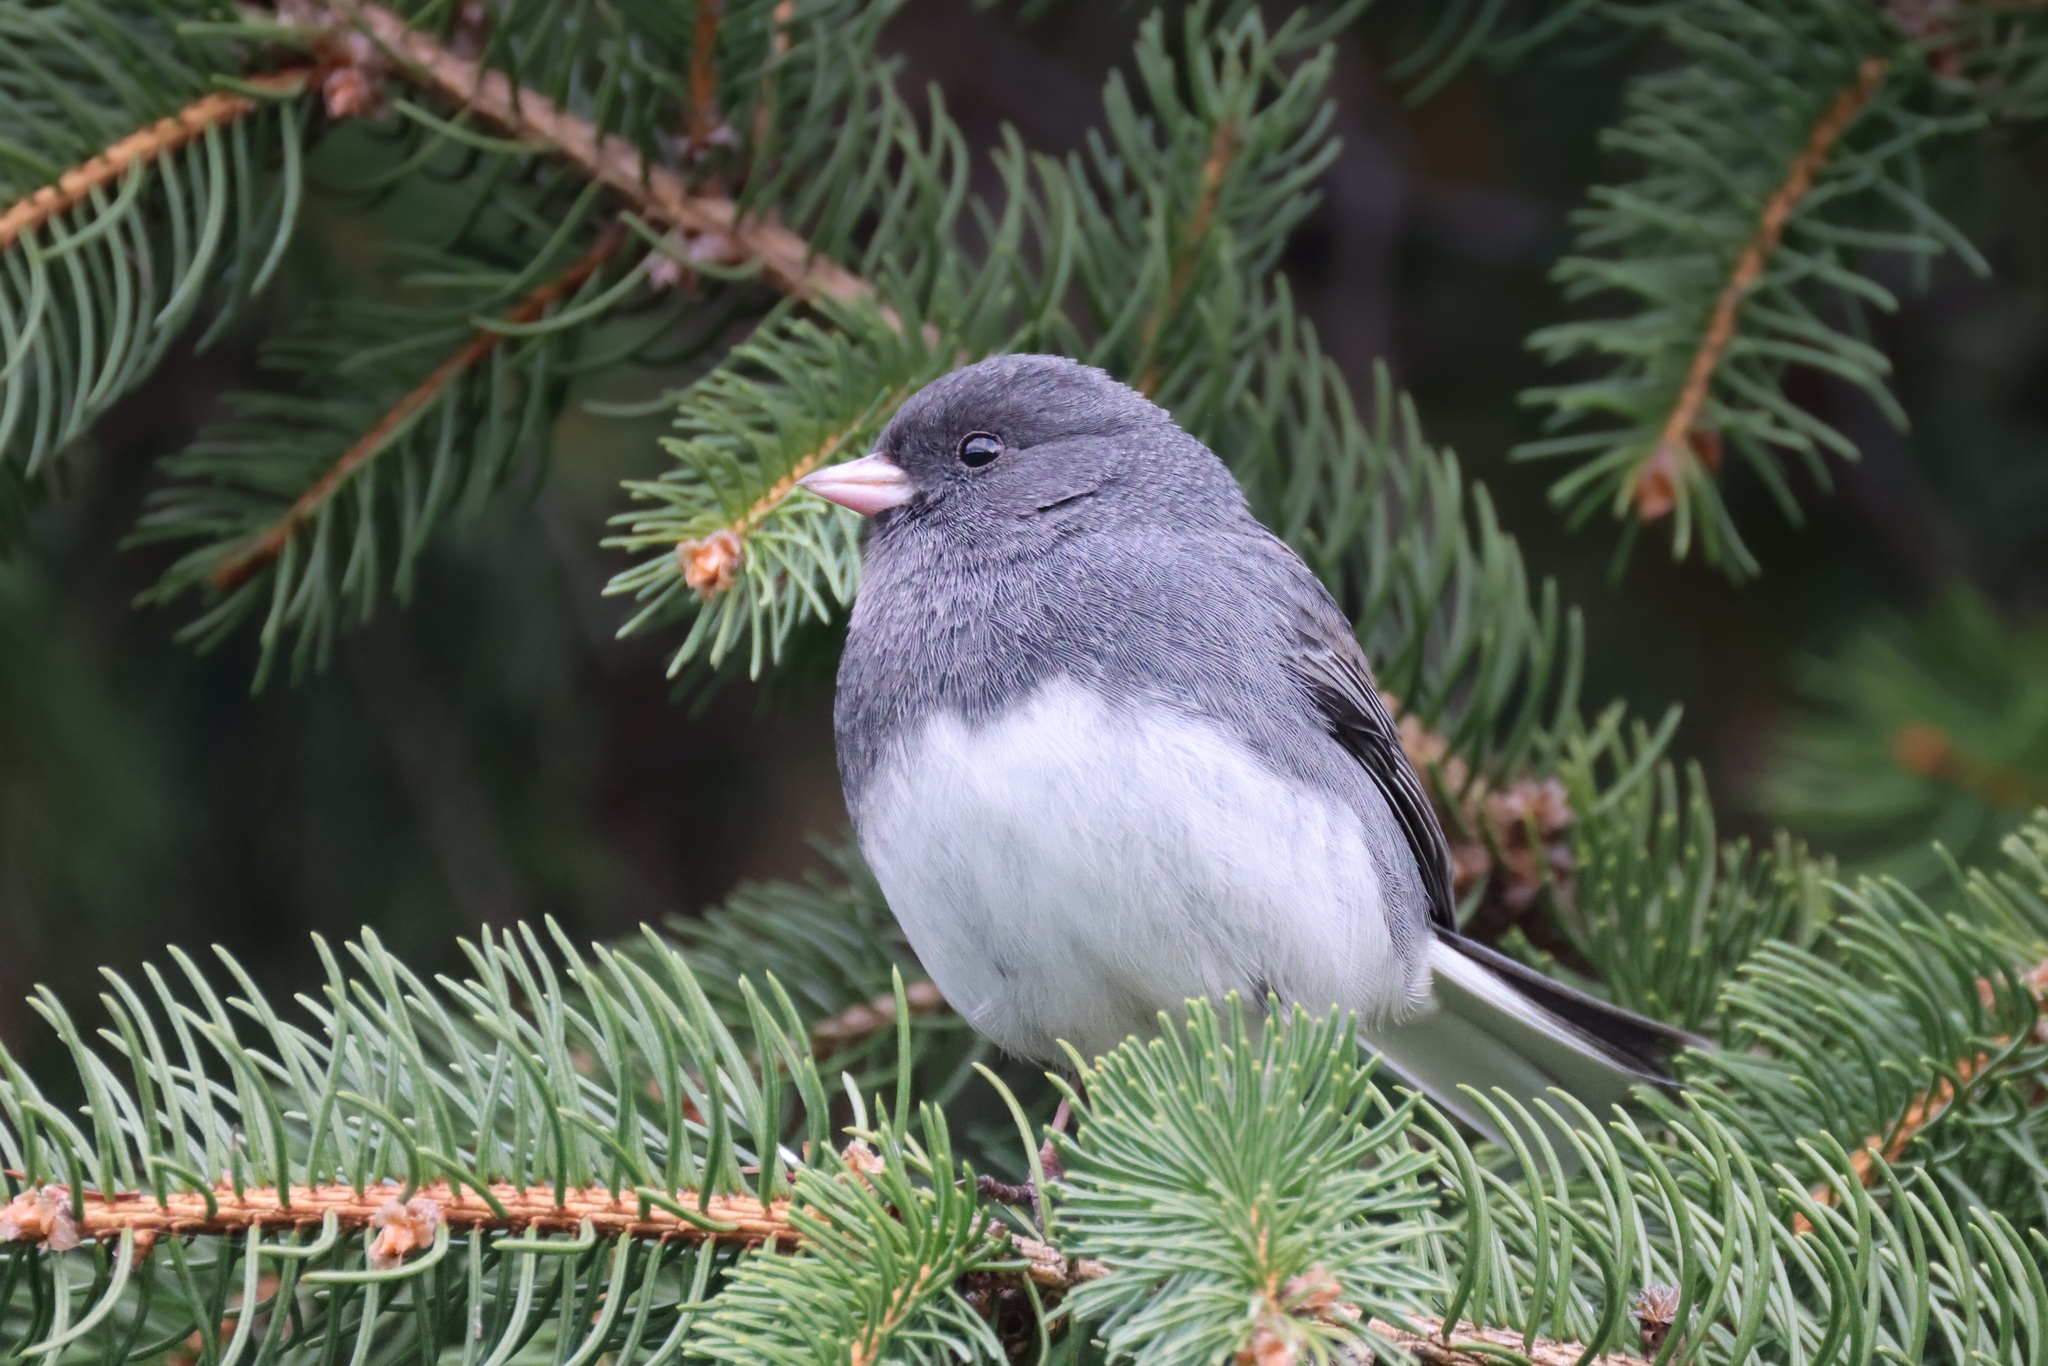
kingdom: Animalia
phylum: Chordata
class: Aves
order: Passeriformes
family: Passerellidae
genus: Junco
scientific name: Junco hyemalis
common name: Dark-eyed junco
